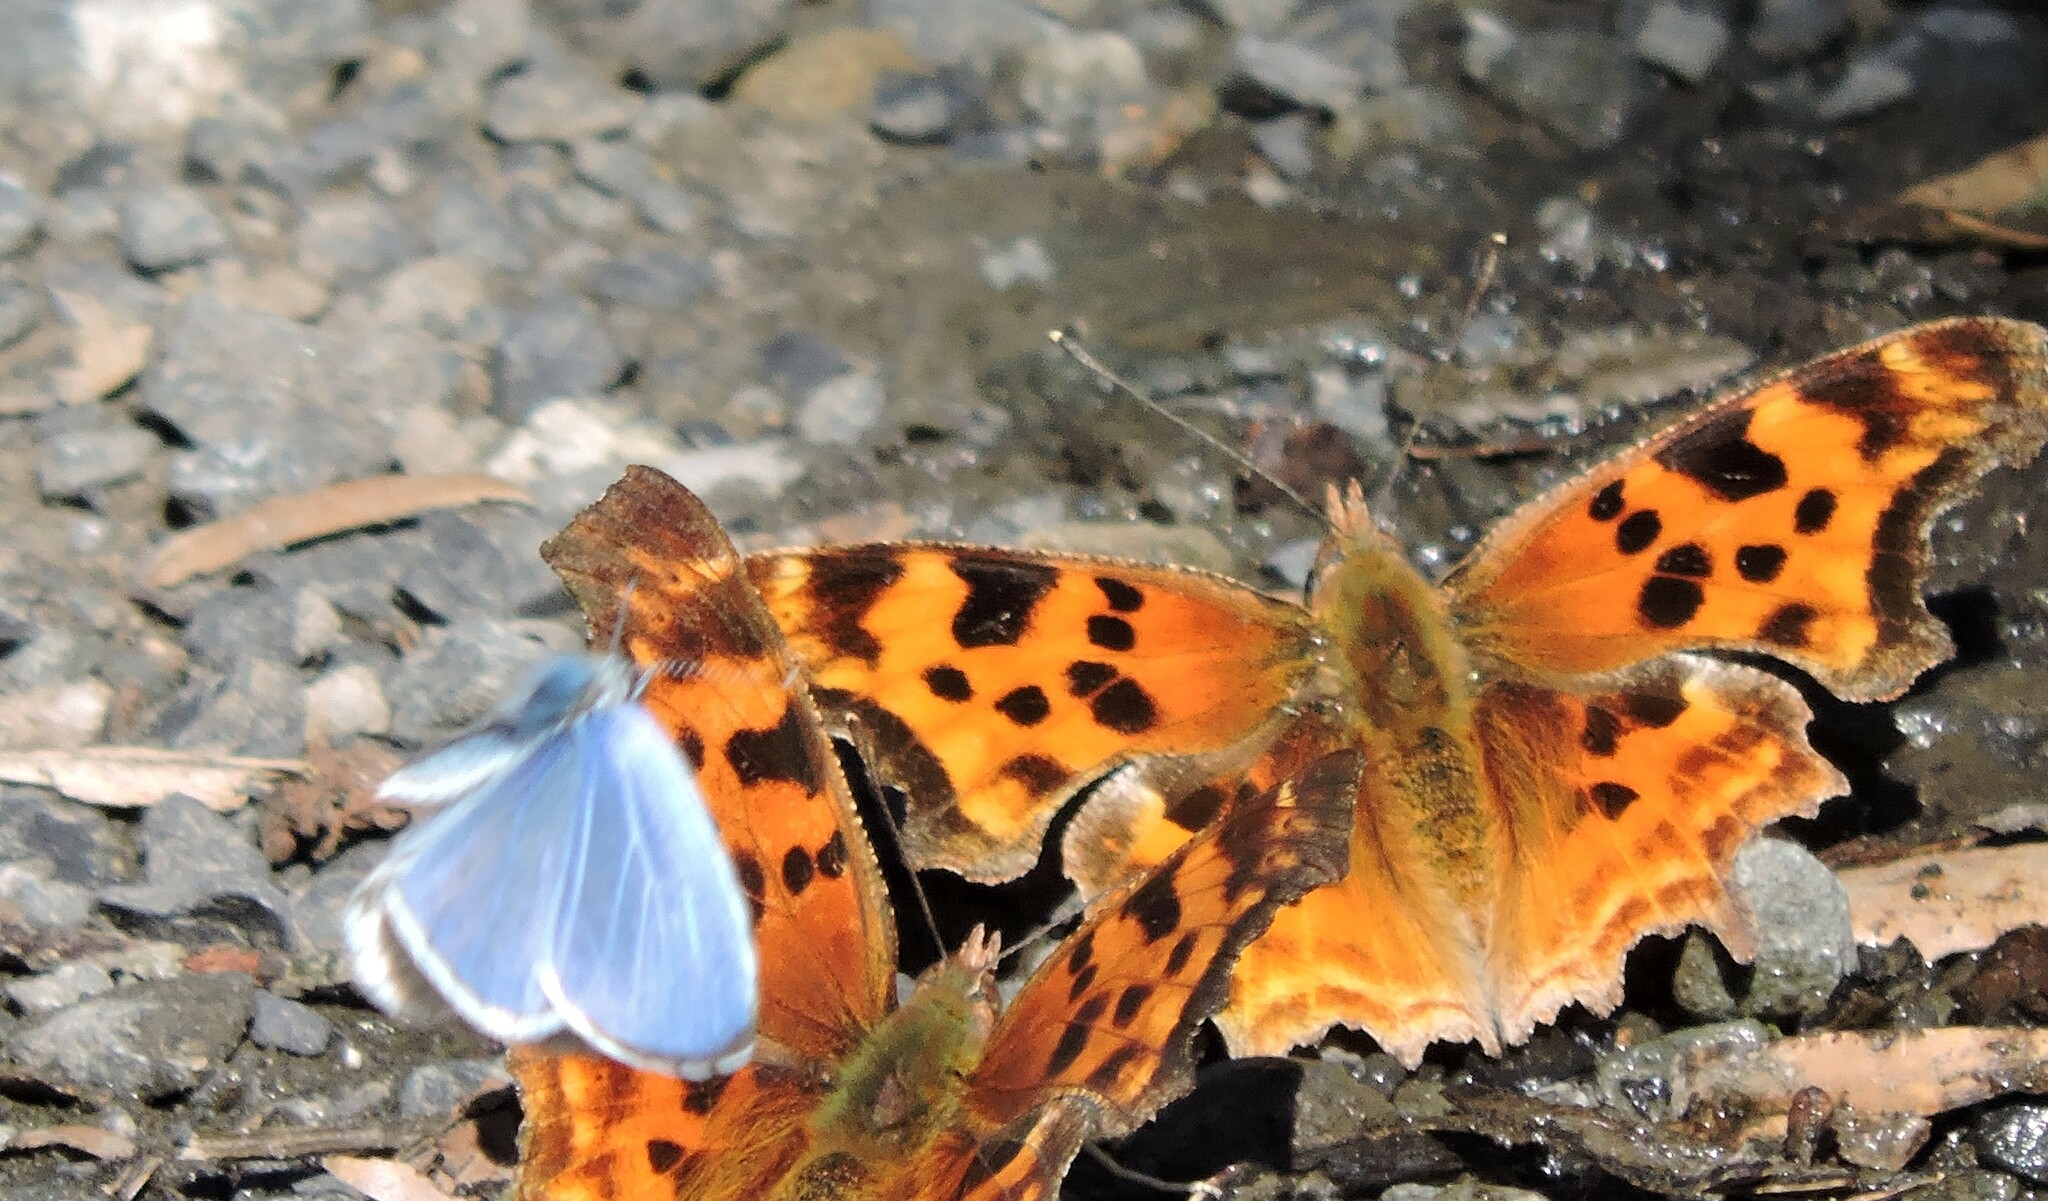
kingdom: Animalia
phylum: Arthropoda
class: Insecta
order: Lepidoptera
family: Lycaenidae
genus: Celastrina
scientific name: Celastrina ladon
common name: Spring azure
